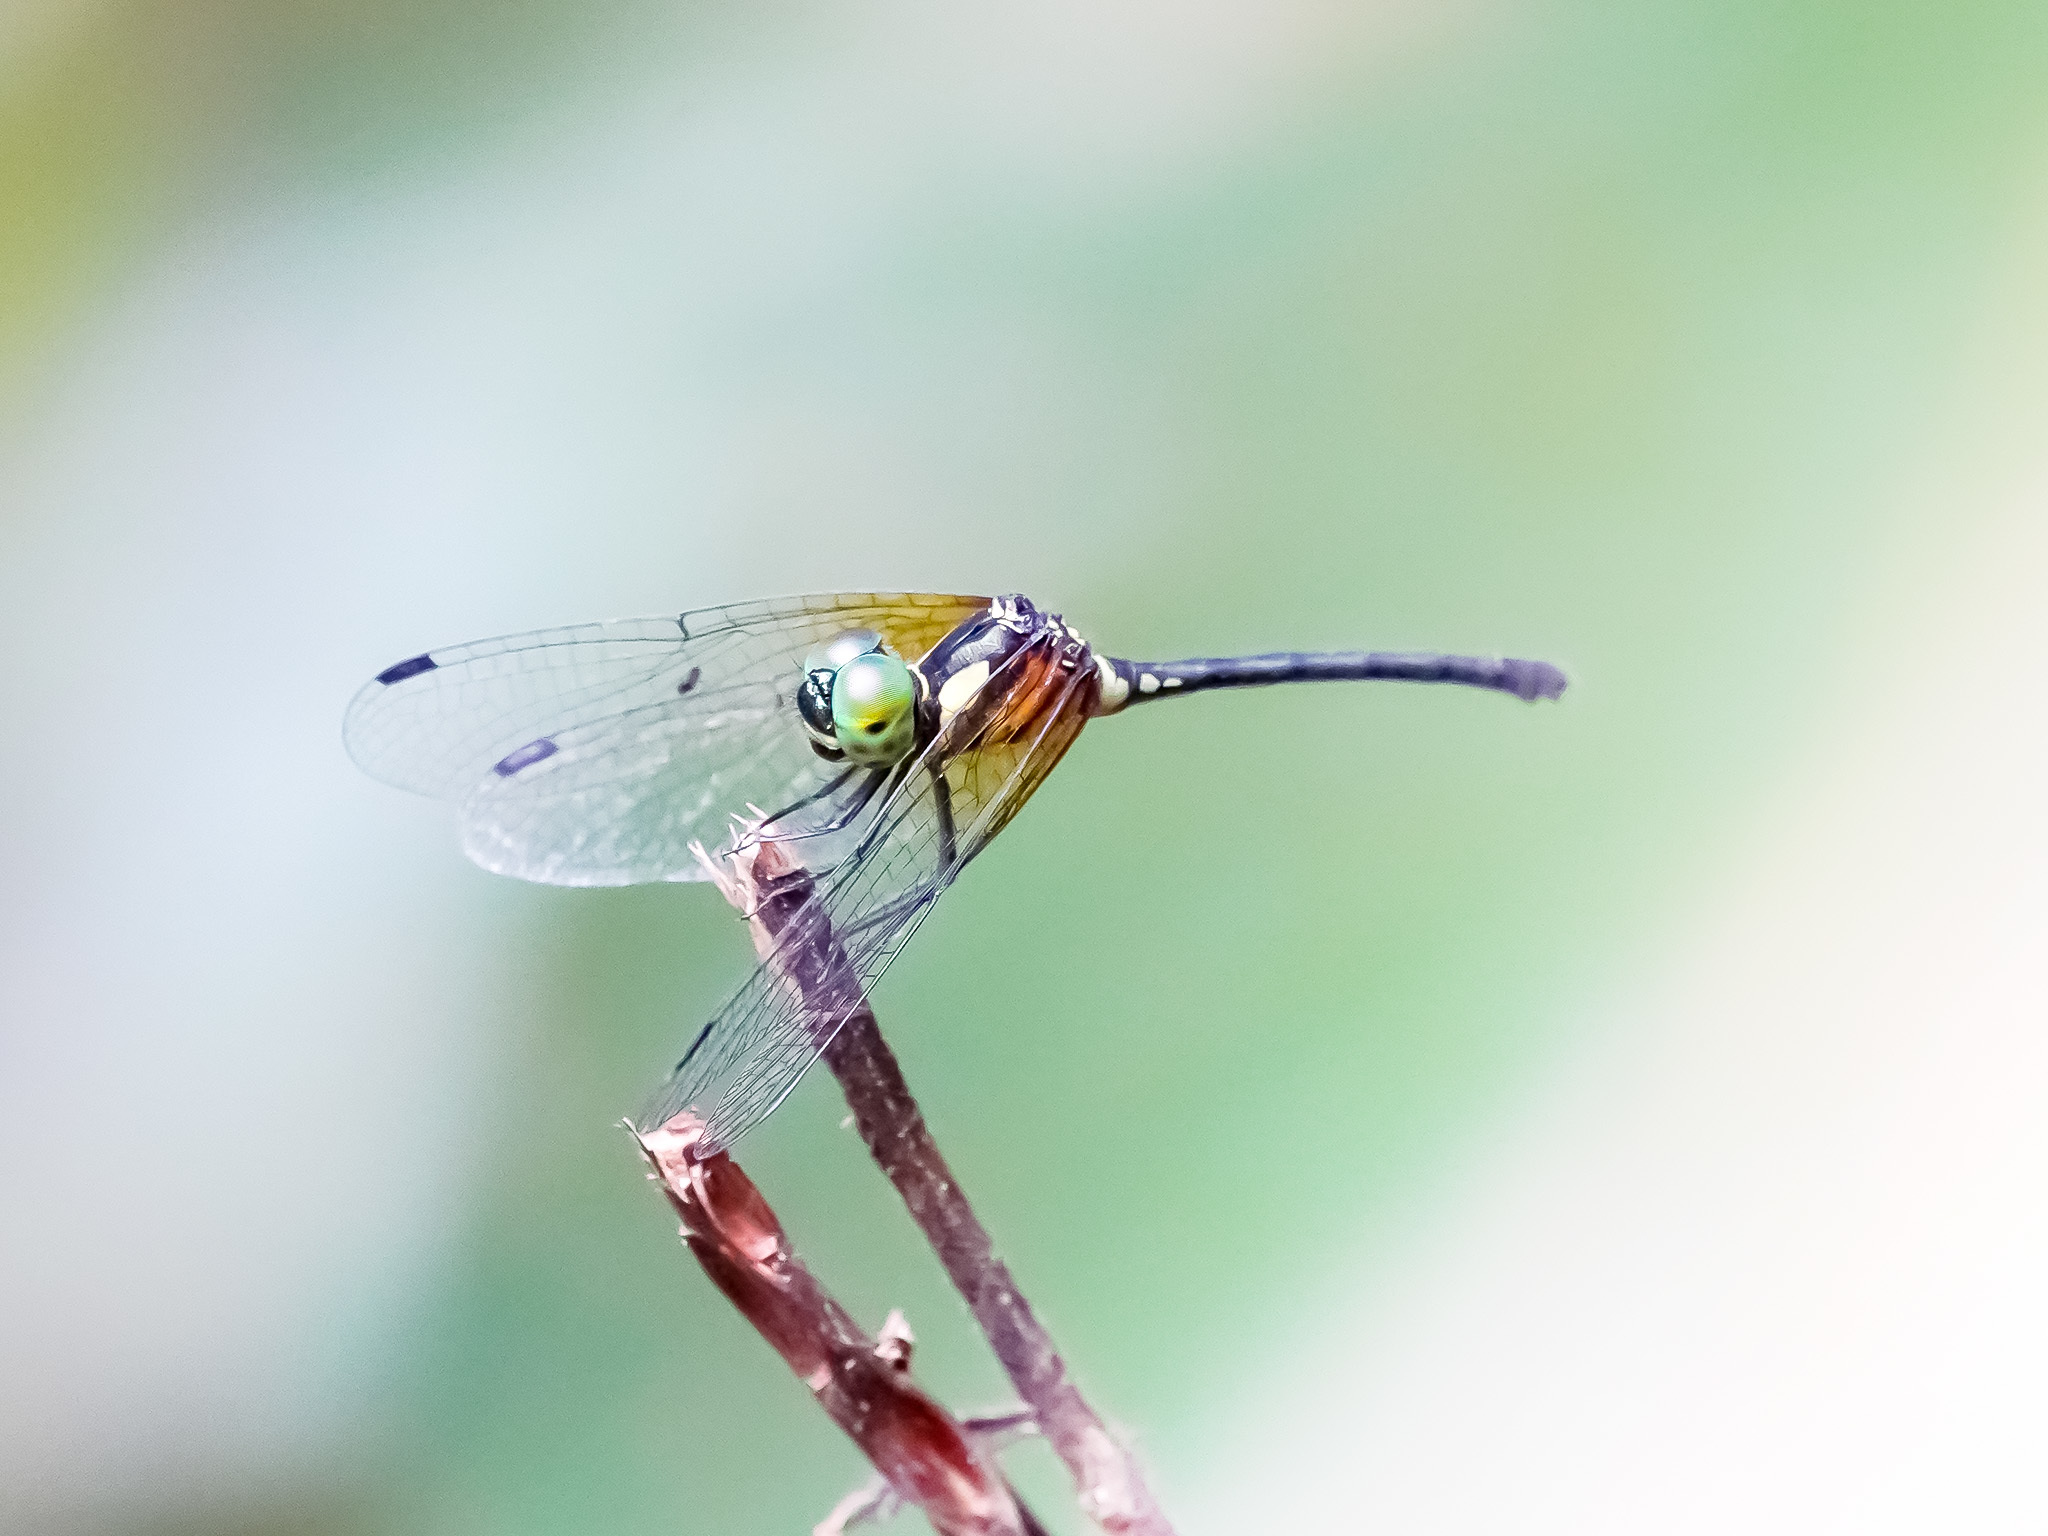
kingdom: Animalia
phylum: Arthropoda
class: Insecta
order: Odonata
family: Libellulidae
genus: Tetrathemis
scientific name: Tetrathemis hyalina
